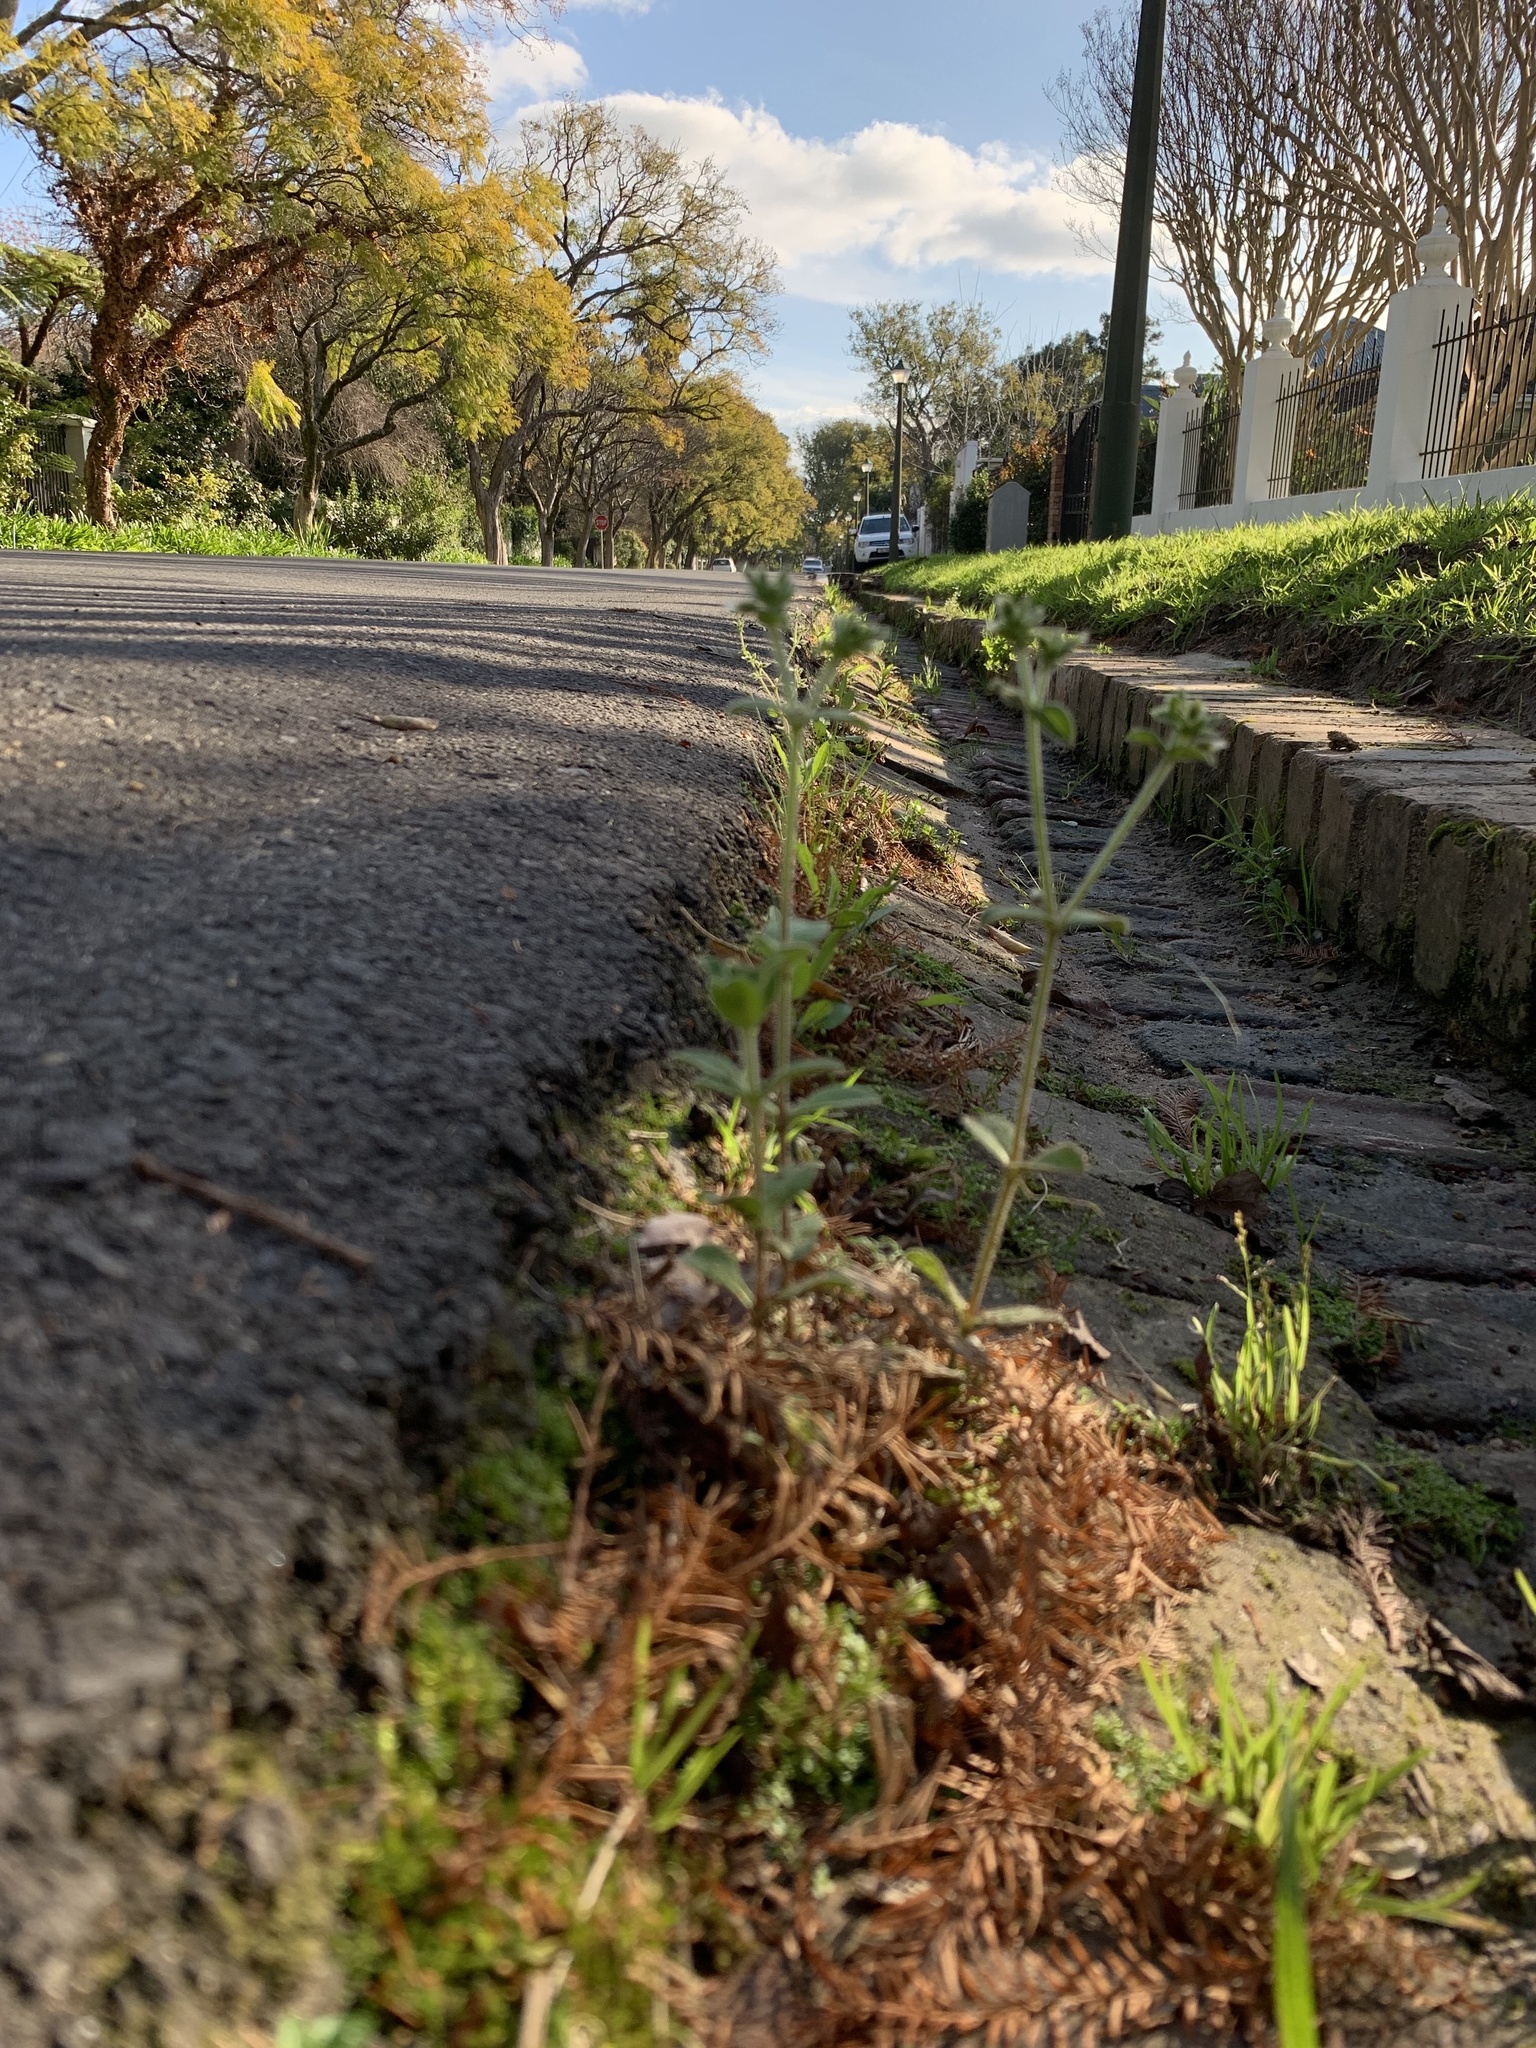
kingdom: Plantae
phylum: Tracheophyta
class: Magnoliopsida
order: Caryophyllales
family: Caryophyllaceae
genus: Cerastium
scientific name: Cerastium glomeratum
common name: Sticky chickweed
